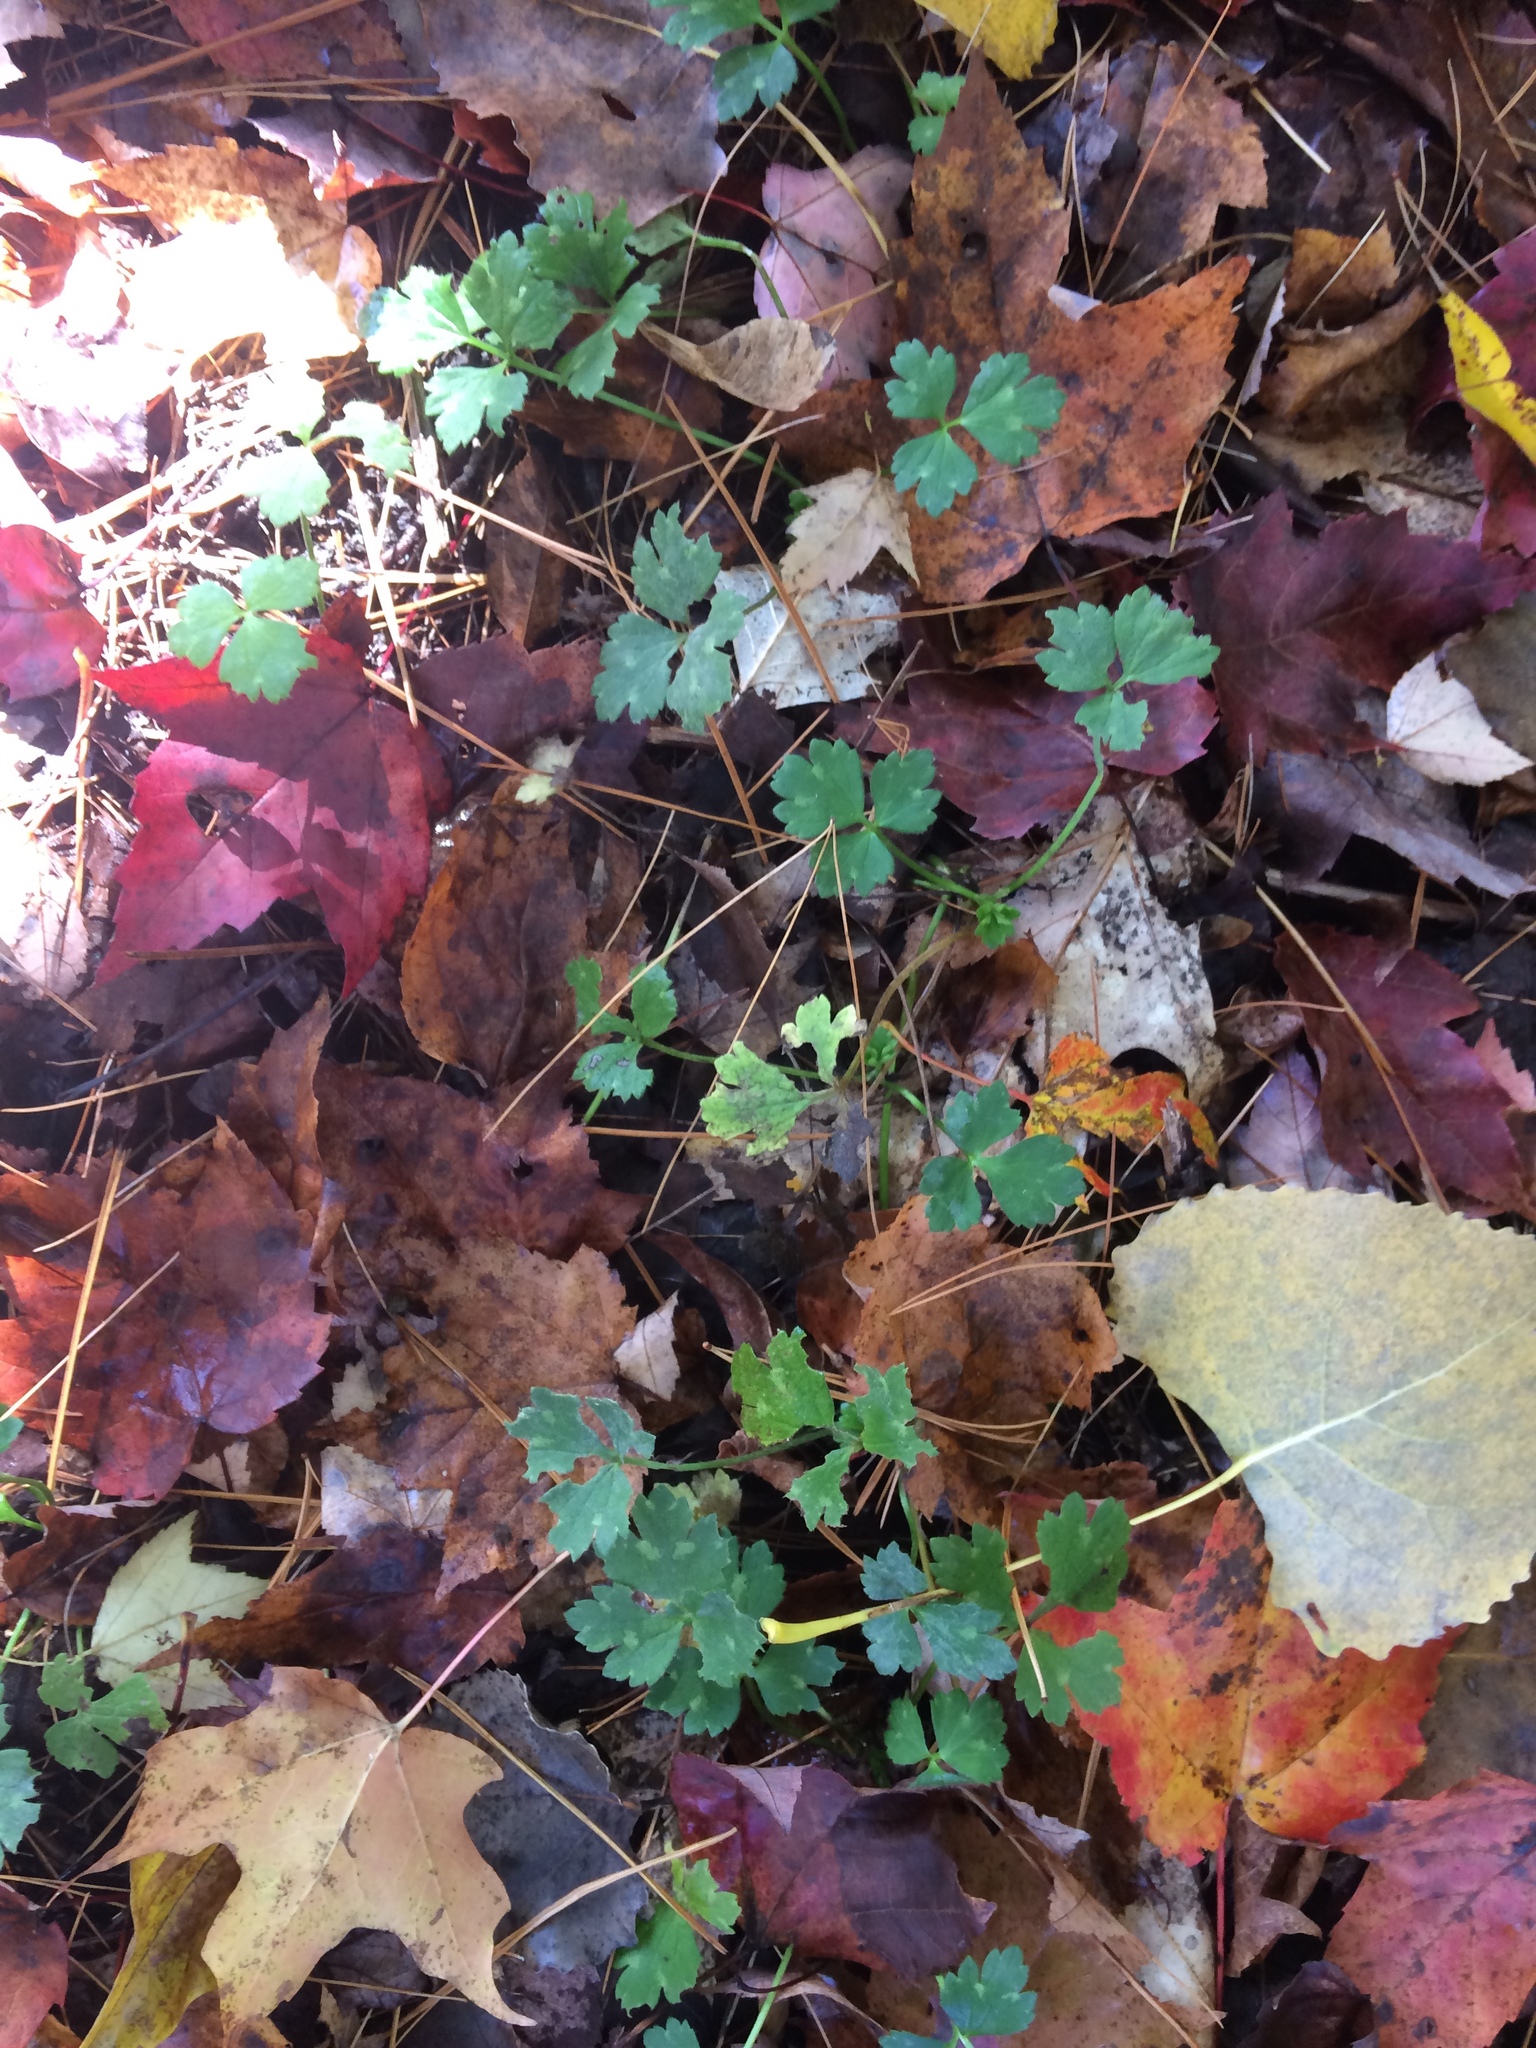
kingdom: Plantae
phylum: Tracheophyta
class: Magnoliopsida
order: Ranunculales
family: Ranunculaceae
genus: Ranunculus
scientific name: Ranunculus repens
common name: Creeping buttercup
